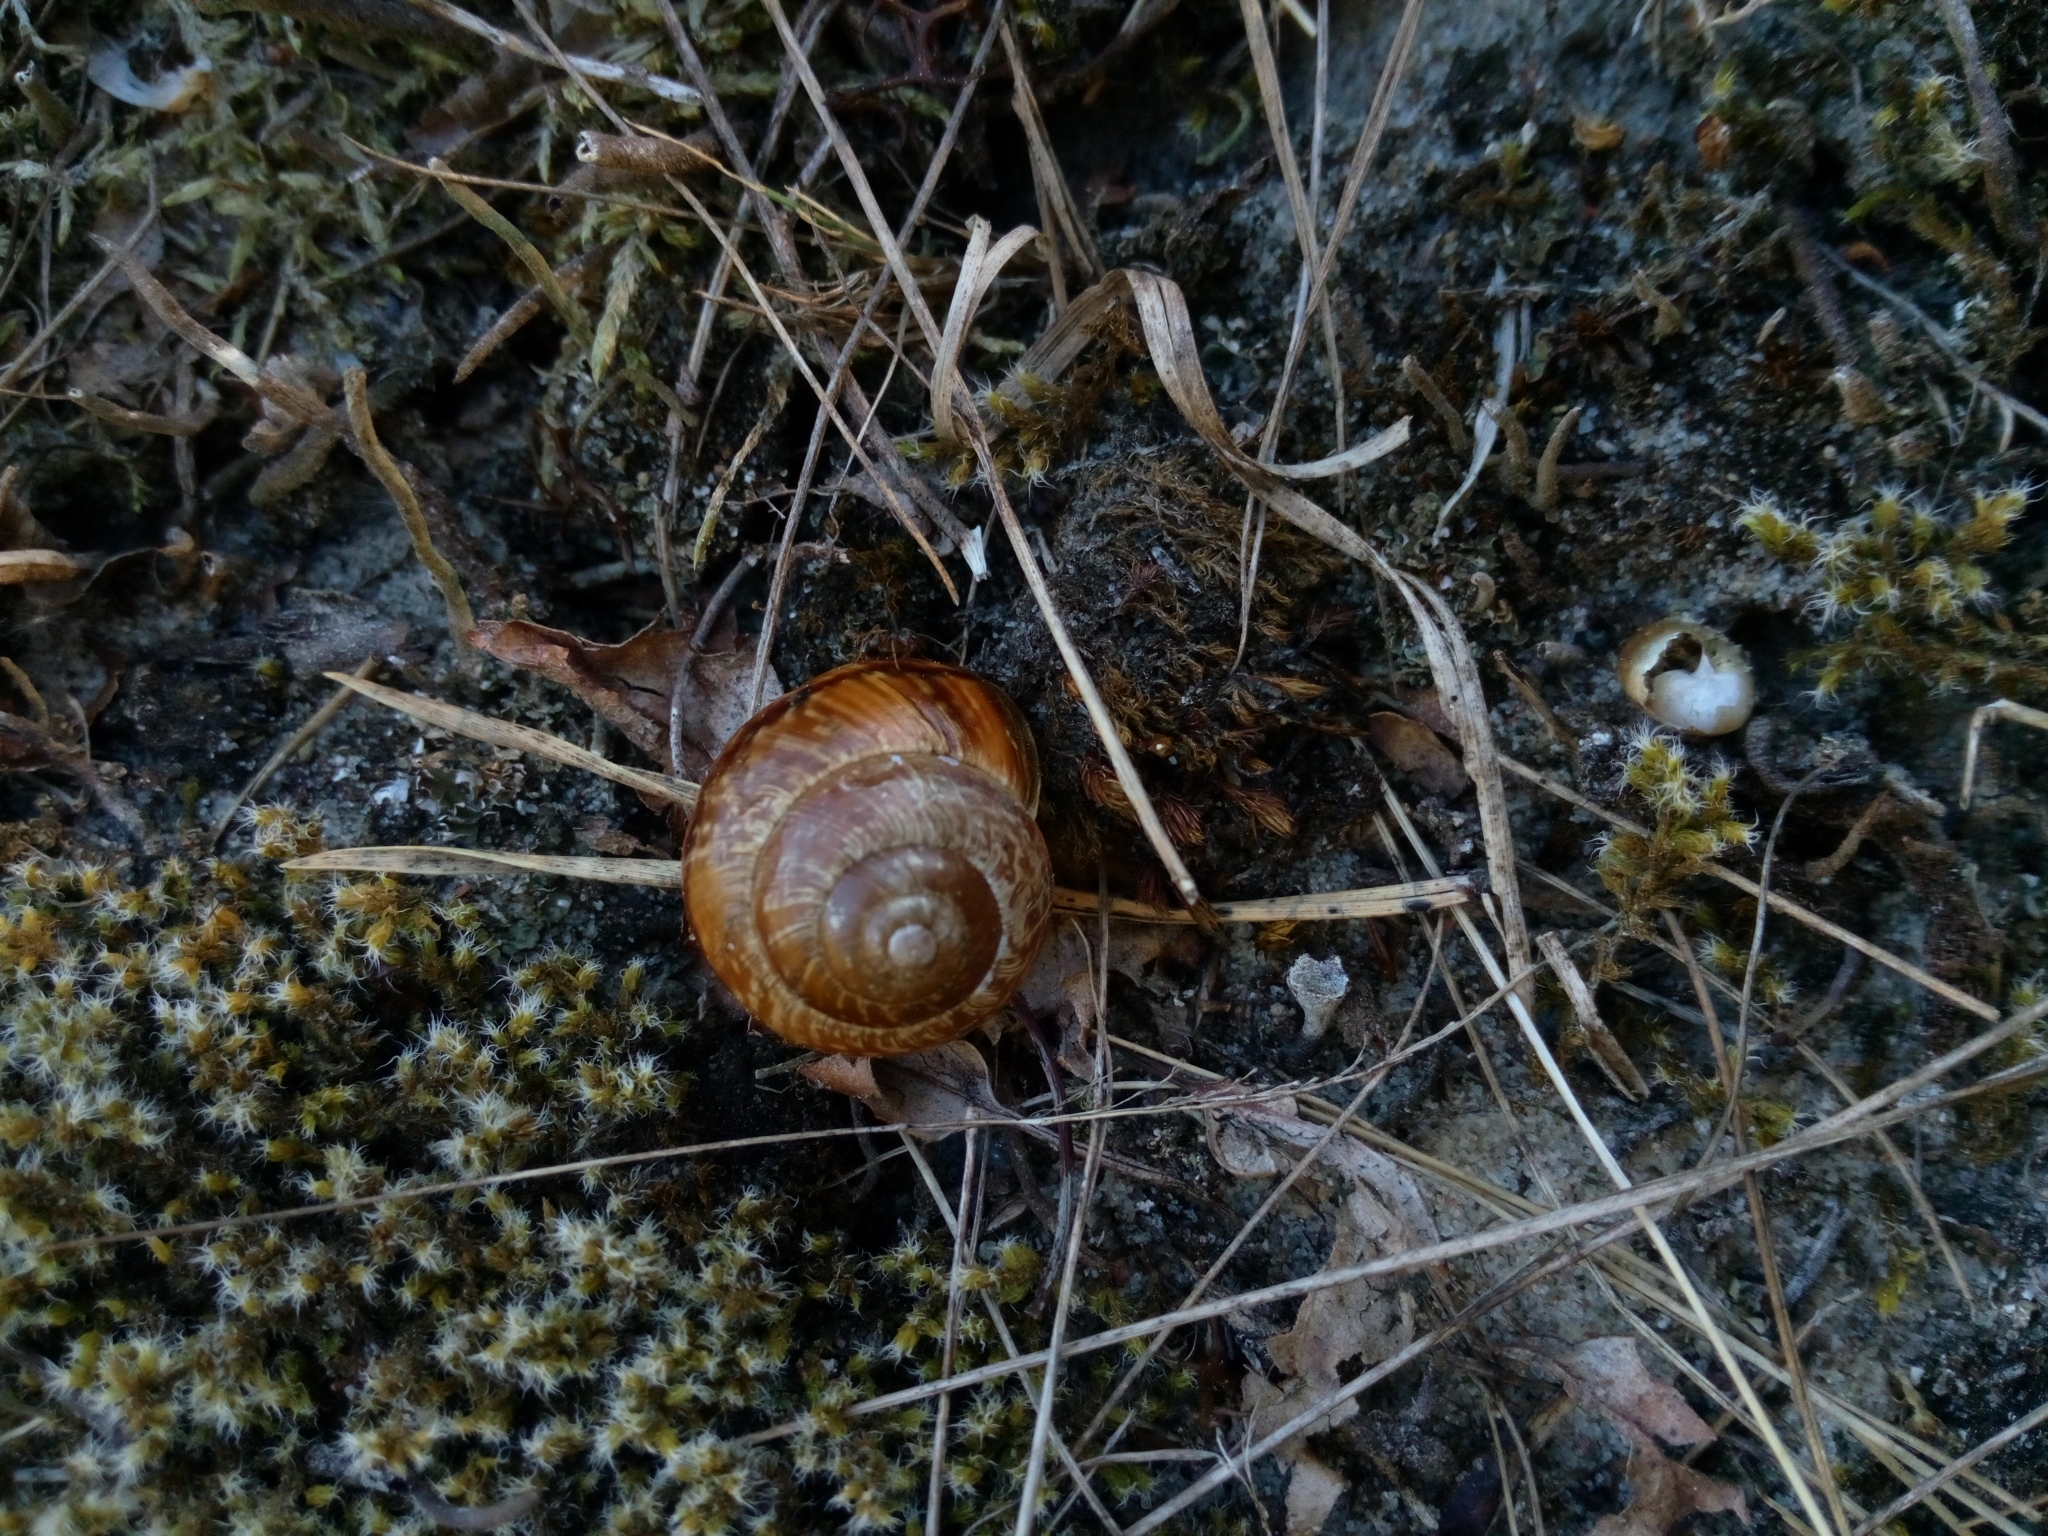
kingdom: Animalia
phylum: Mollusca
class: Gastropoda
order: Stylommatophora
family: Helicidae
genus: Arianta
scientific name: Arianta arbustorum
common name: Copse snail
